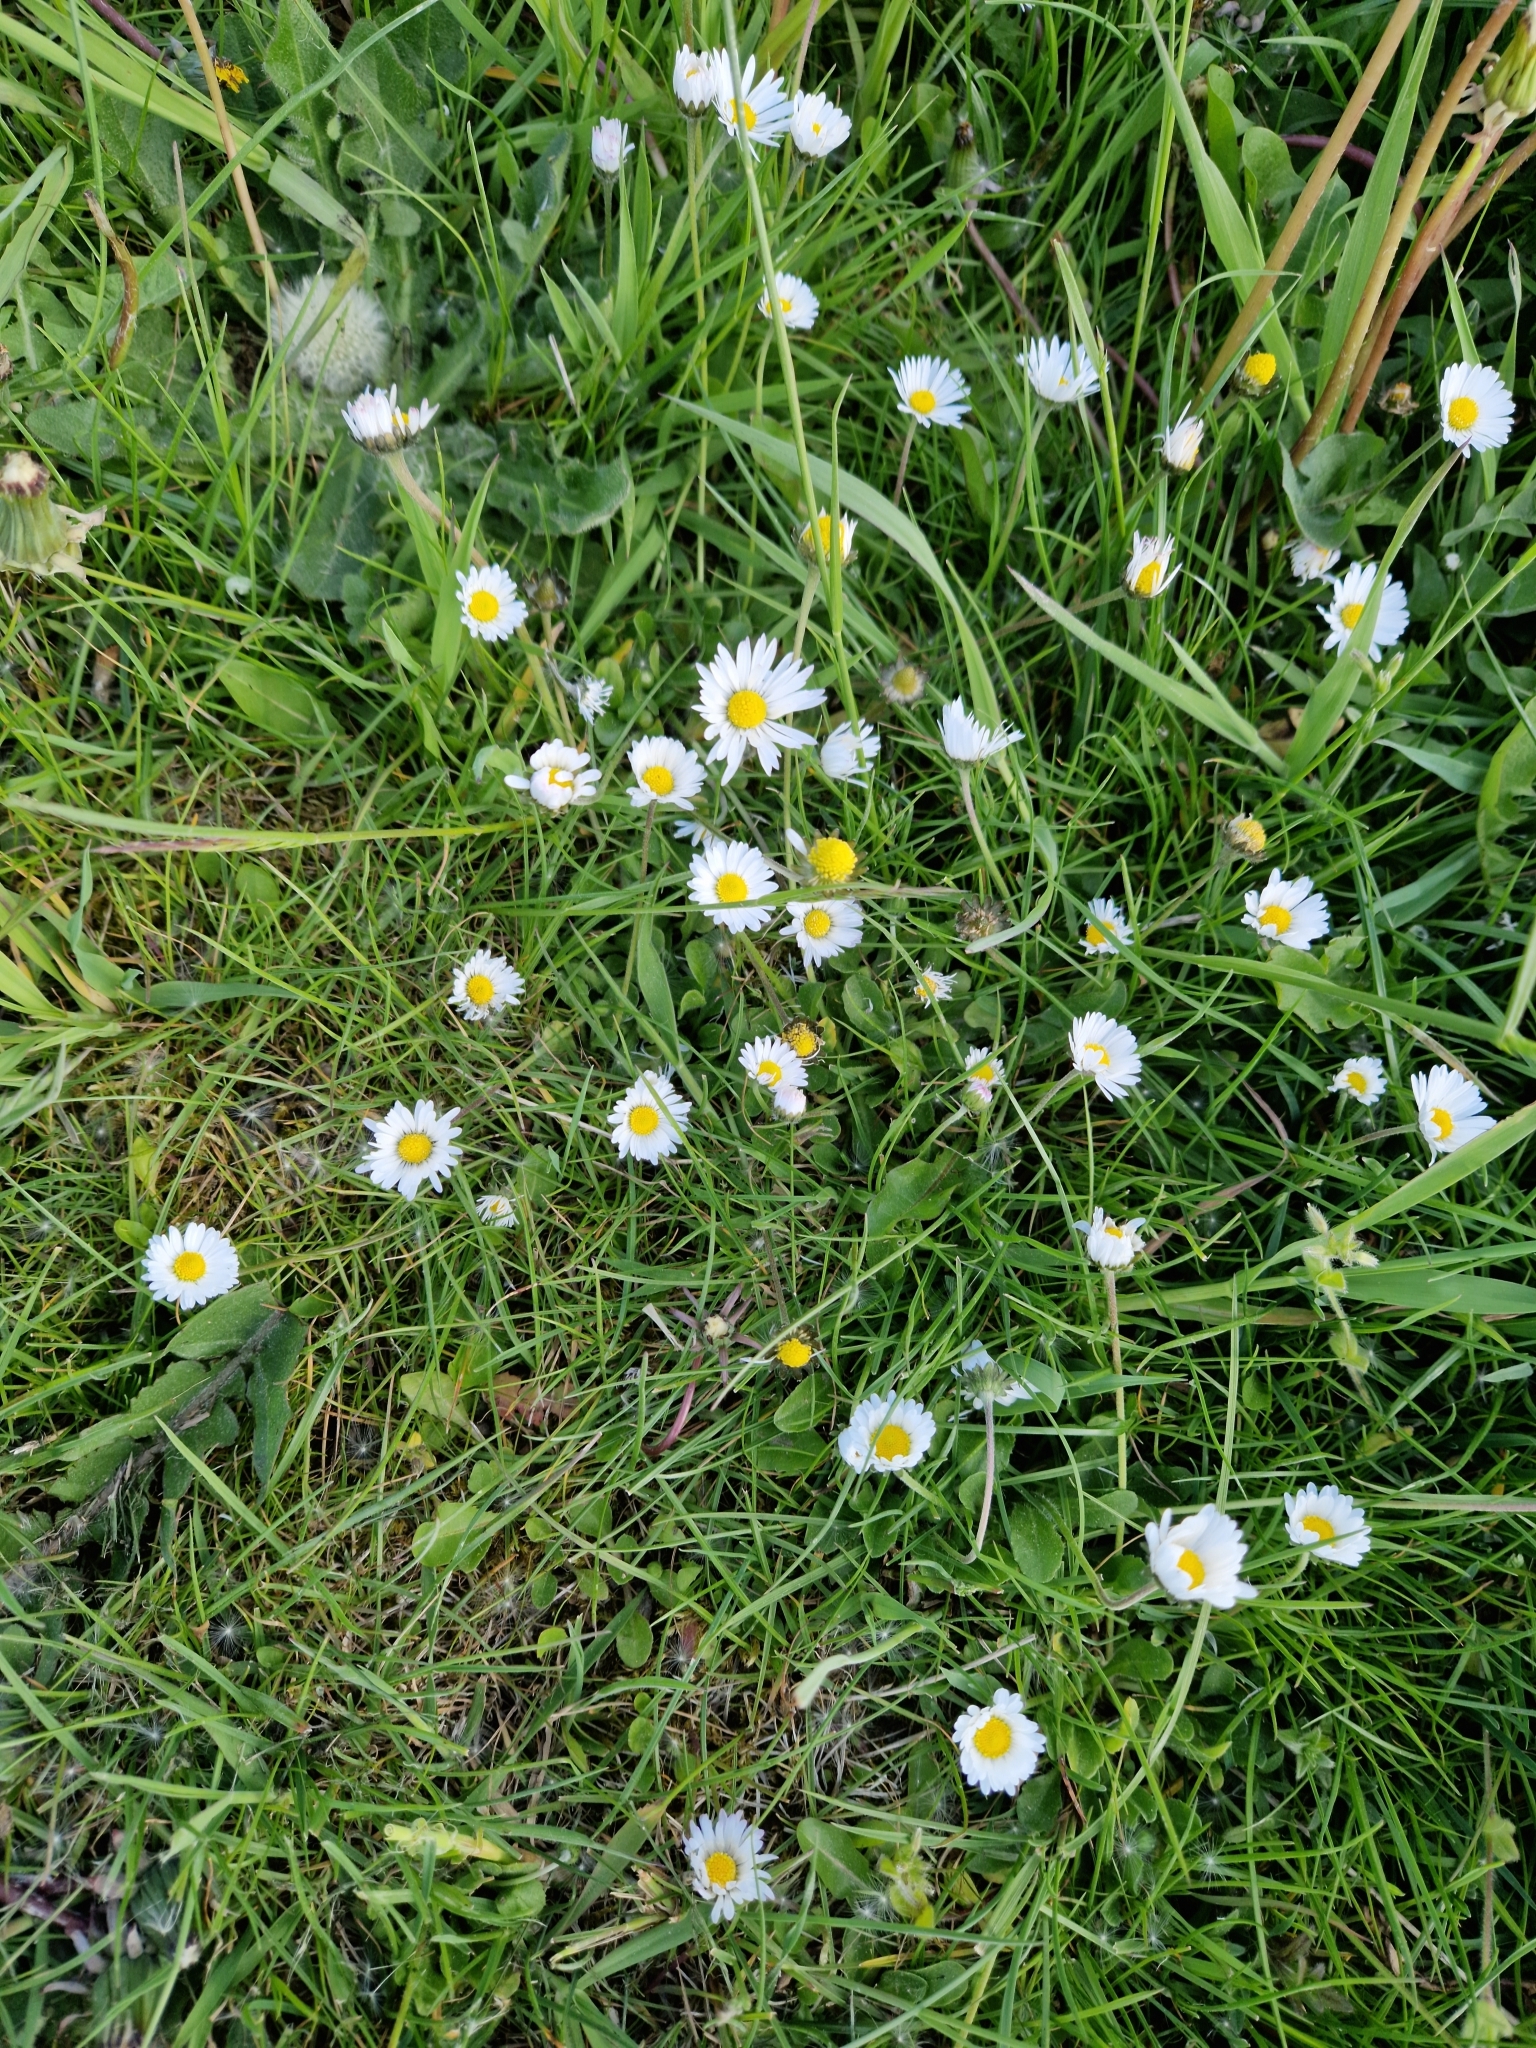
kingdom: Plantae
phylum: Tracheophyta
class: Magnoliopsida
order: Asterales
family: Asteraceae
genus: Bellis
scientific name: Bellis perennis
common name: Lawndaisy
